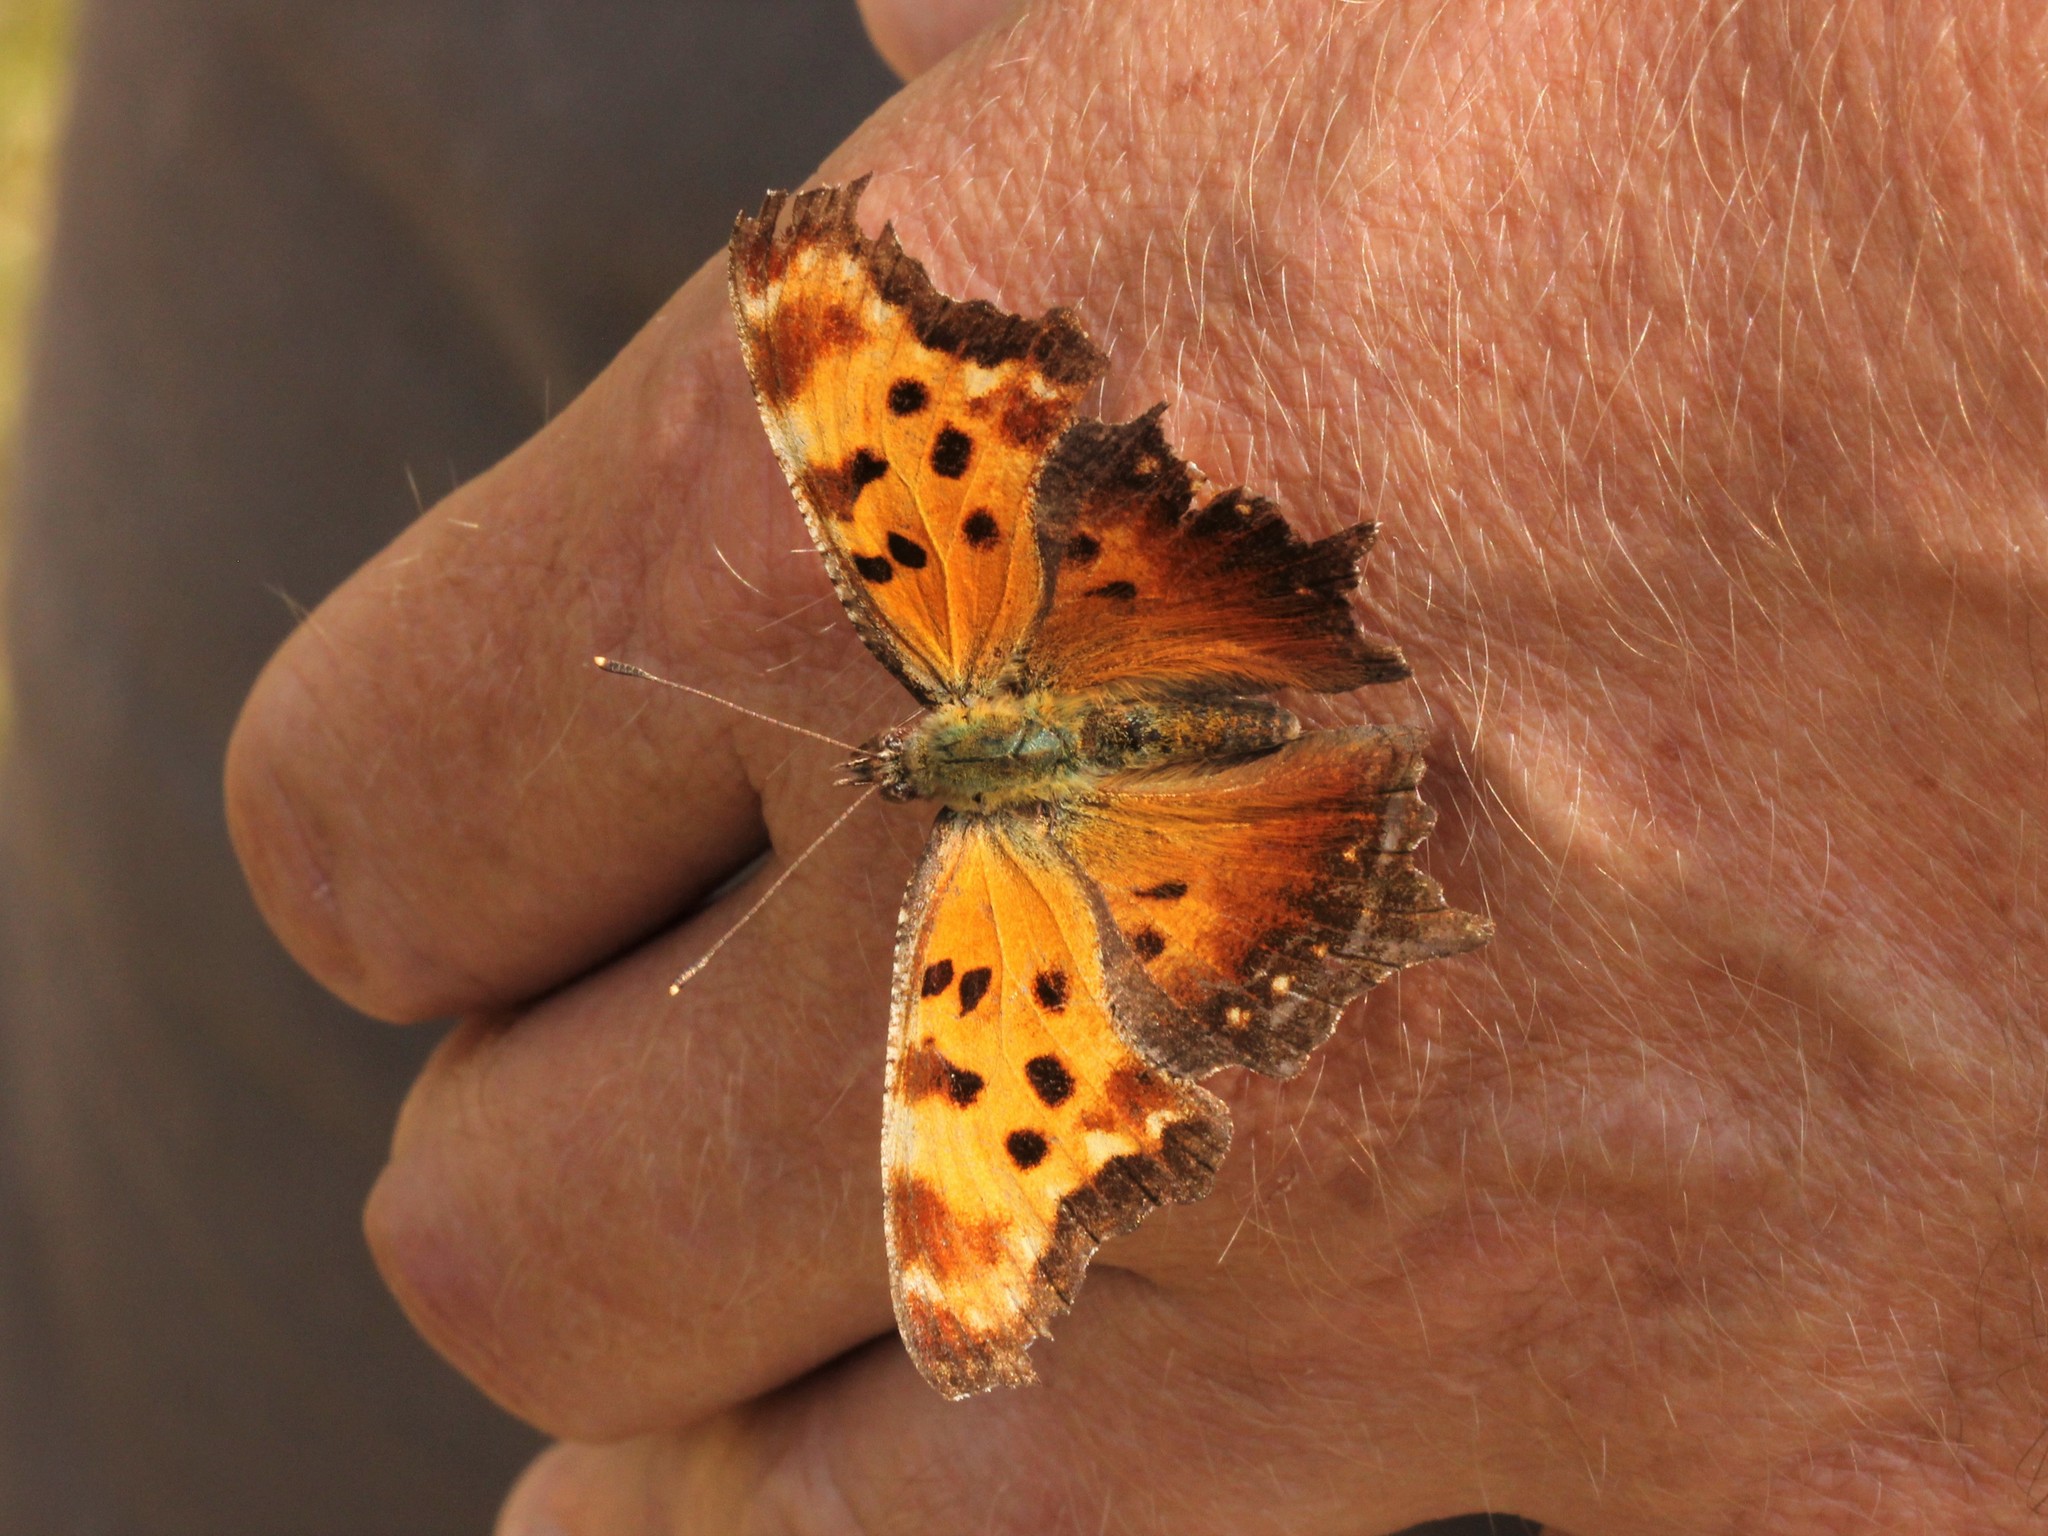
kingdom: Animalia
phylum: Arthropoda
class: Insecta
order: Lepidoptera
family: Nymphalidae
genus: Polygonia
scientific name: Polygonia progne
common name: Gray comma
